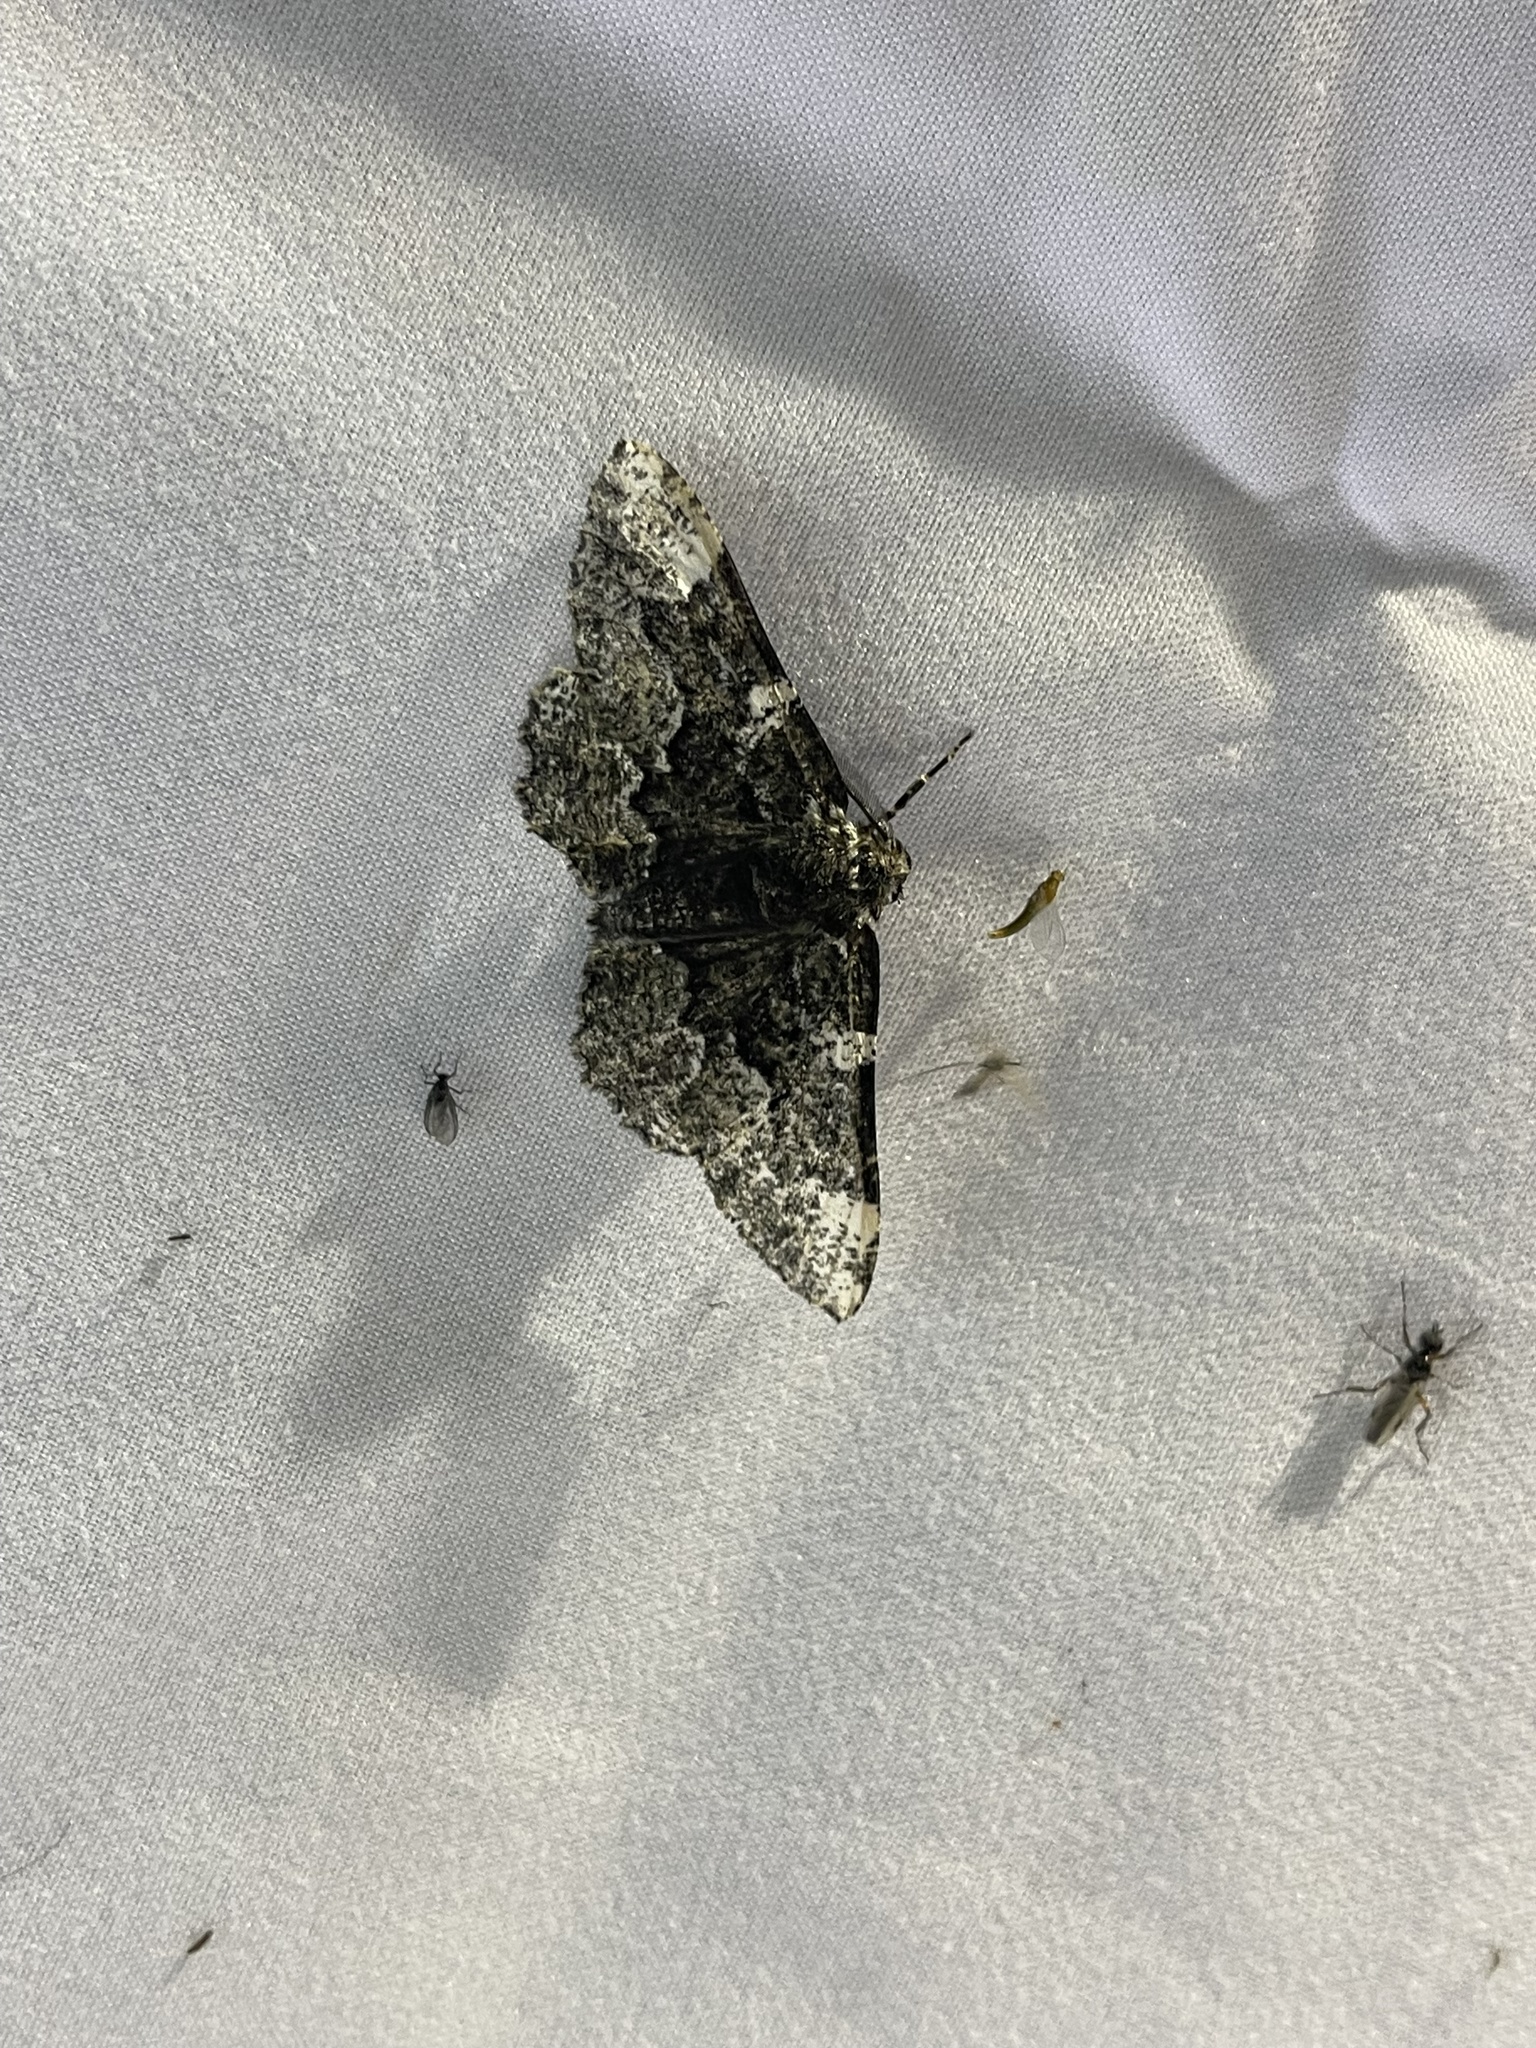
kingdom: Animalia
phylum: Arthropoda
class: Insecta
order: Lepidoptera
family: Geometridae
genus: Phaeoura
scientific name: Phaeoura quernaria
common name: Oak beauty
